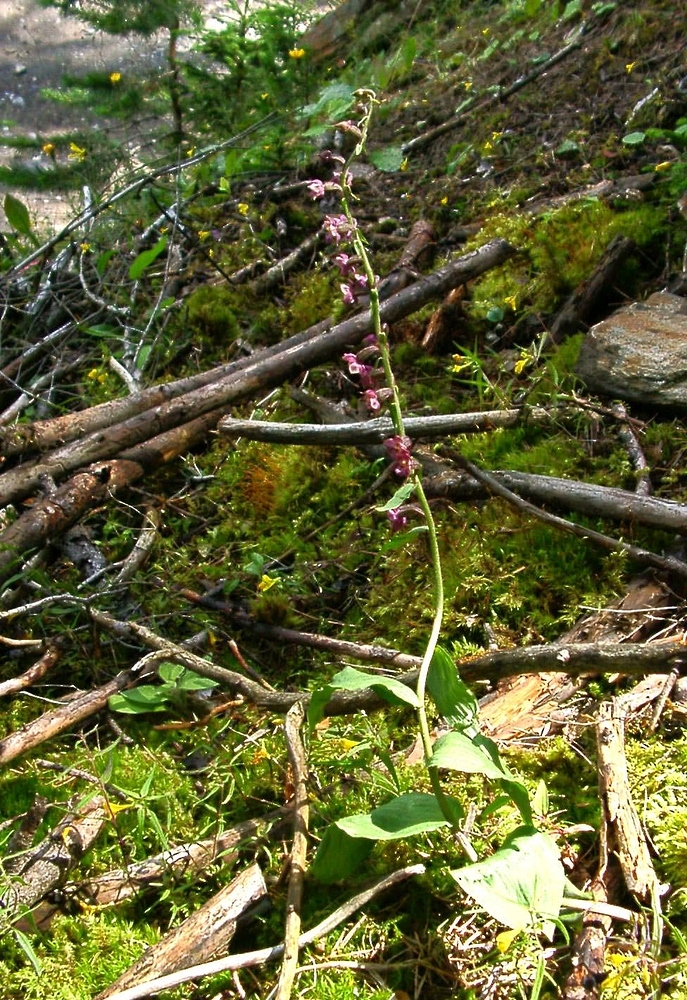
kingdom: Plantae
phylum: Tracheophyta
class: Liliopsida
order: Asparagales
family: Orchidaceae
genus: Epipactis
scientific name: Epipactis atrorubens
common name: Dark-red helleborine
